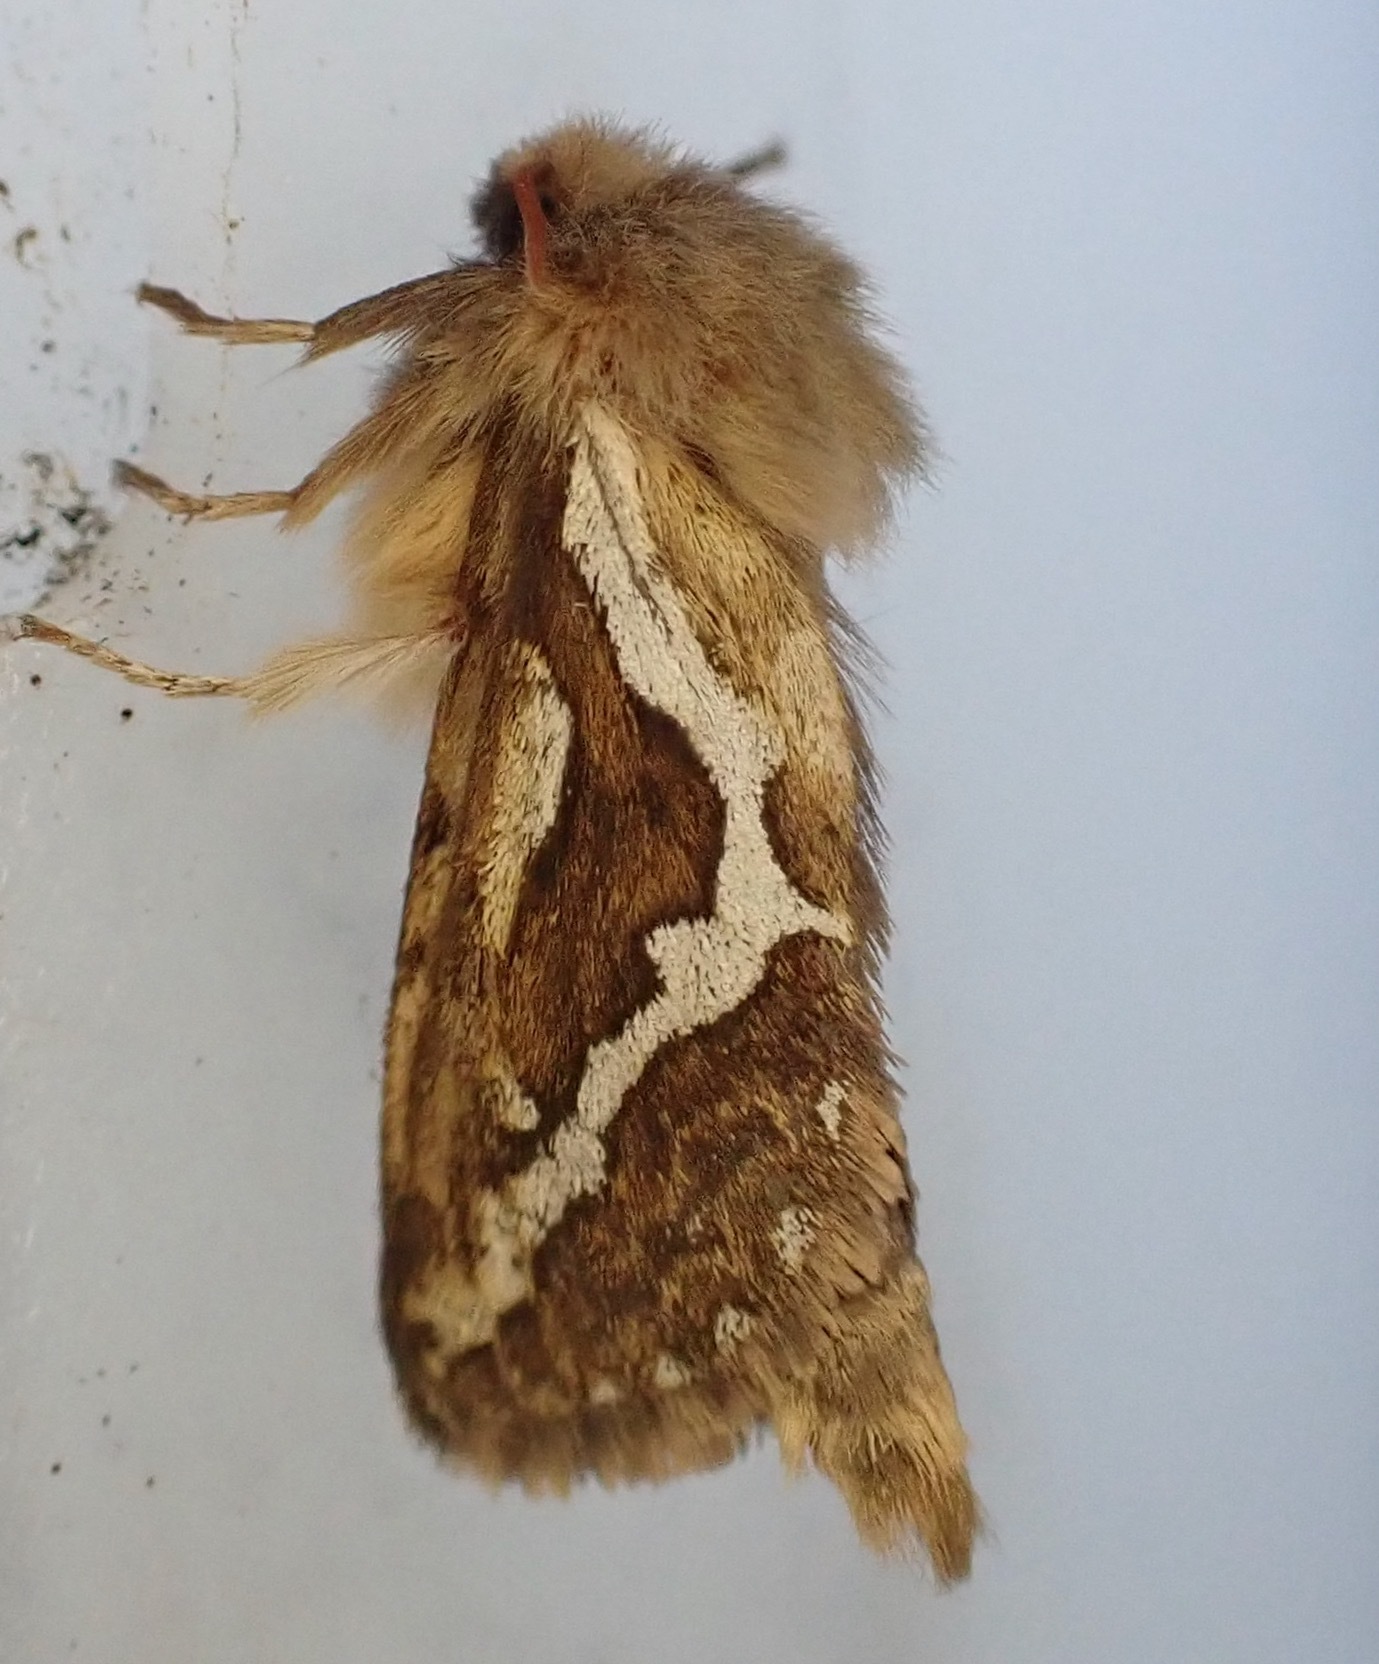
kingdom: Animalia
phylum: Arthropoda
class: Insecta
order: Lepidoptera
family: Hepialidae
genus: Korscheltellus
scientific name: Korscheltellus lupulina
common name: Common swift
